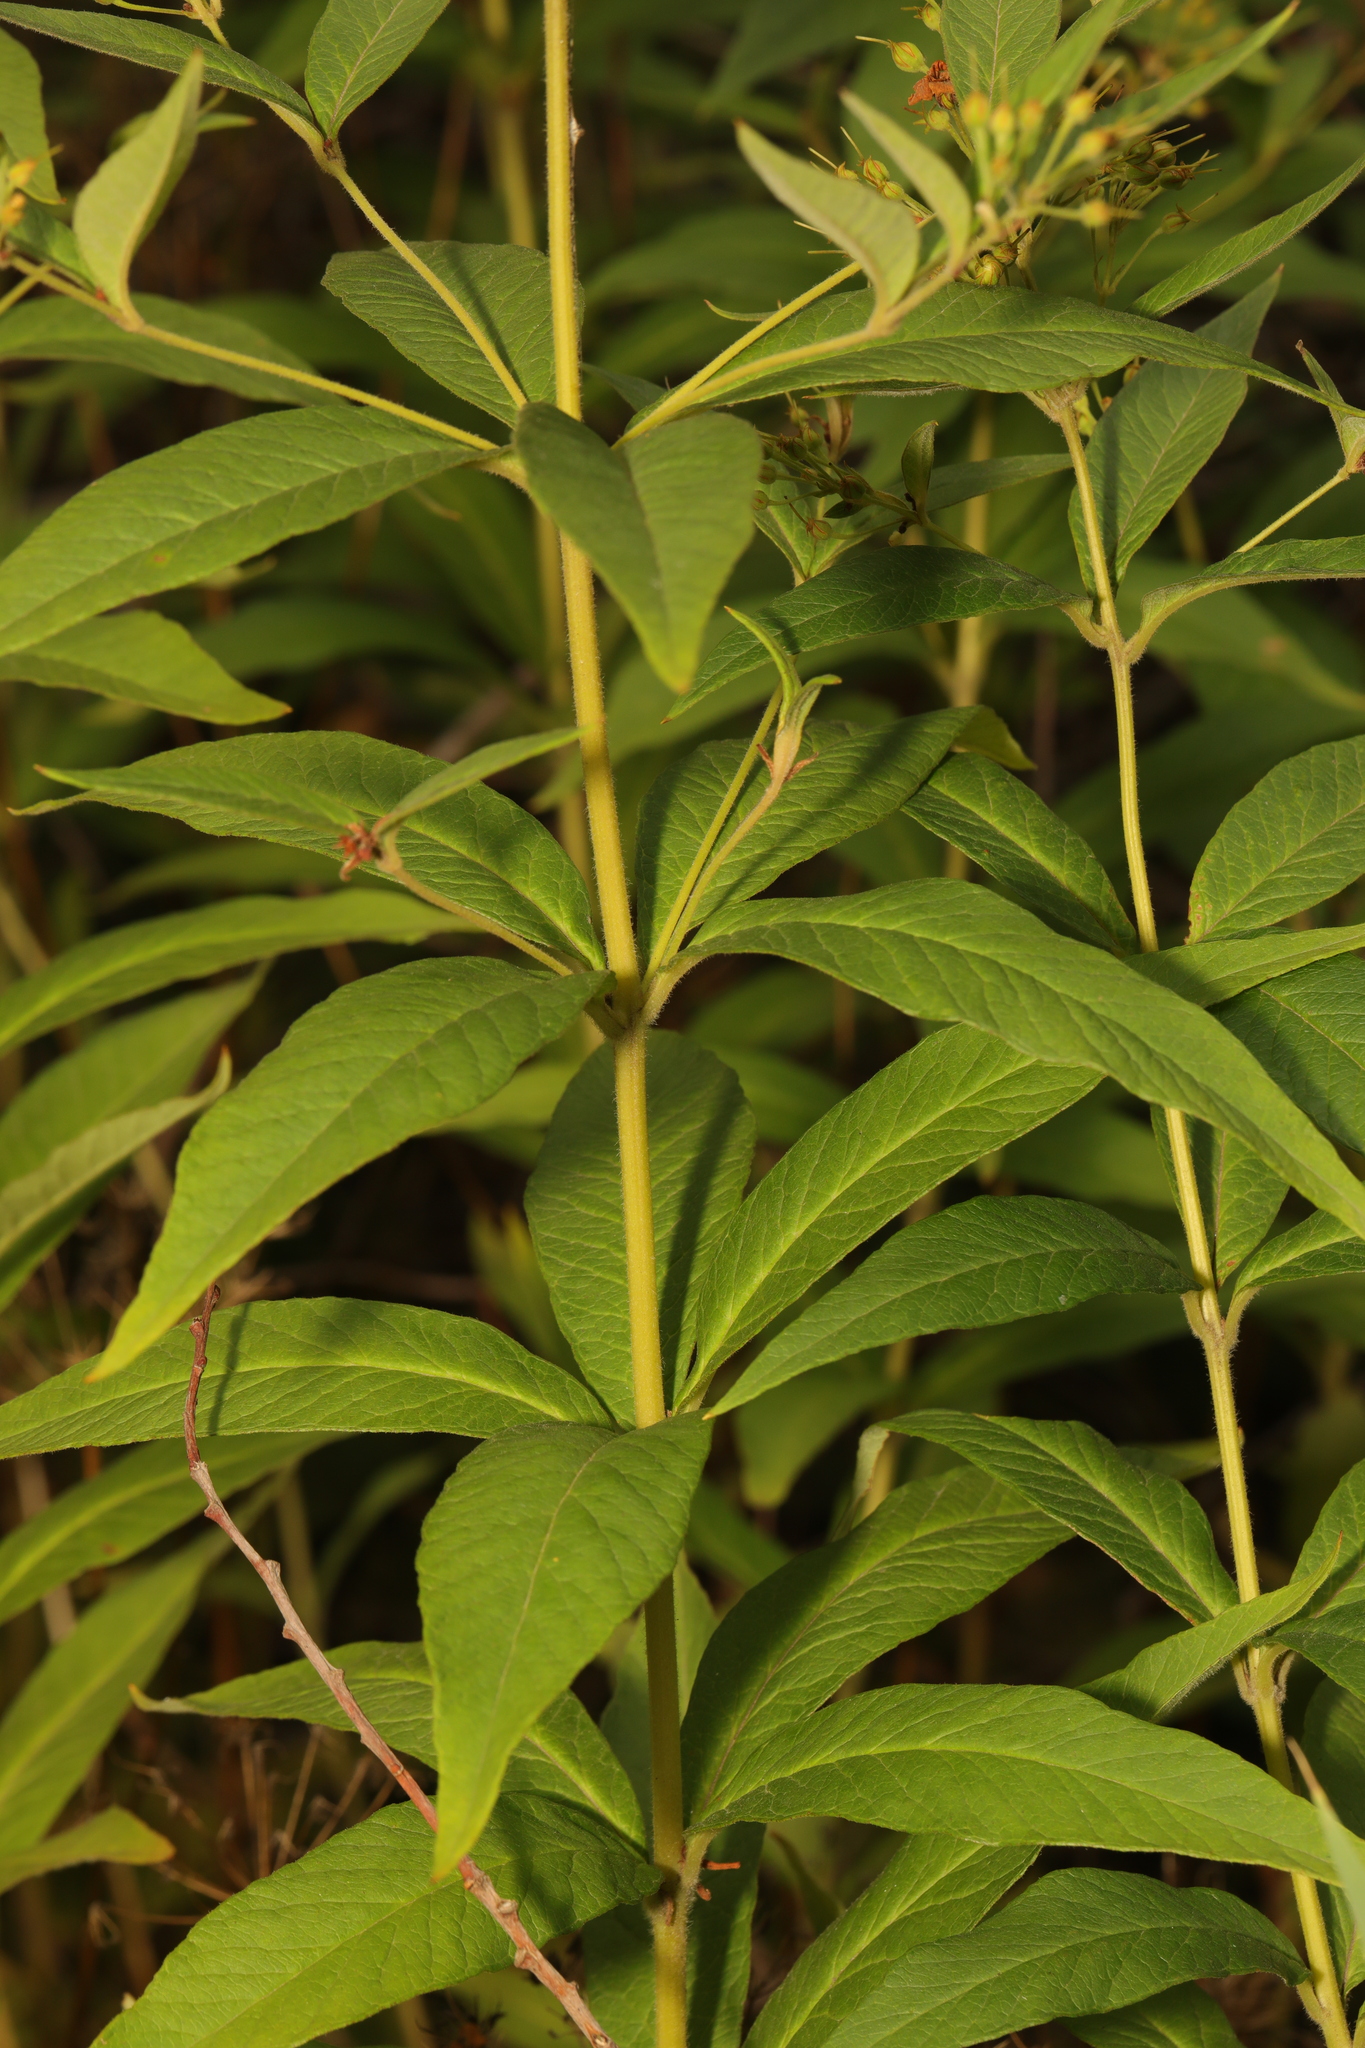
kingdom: Plantae
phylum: Tracheophyta
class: Magnoliopsida
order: Ericales
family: Primulaceae
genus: Lysimachia
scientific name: Lysimachia vulgaris
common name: Yellow loosestrife
